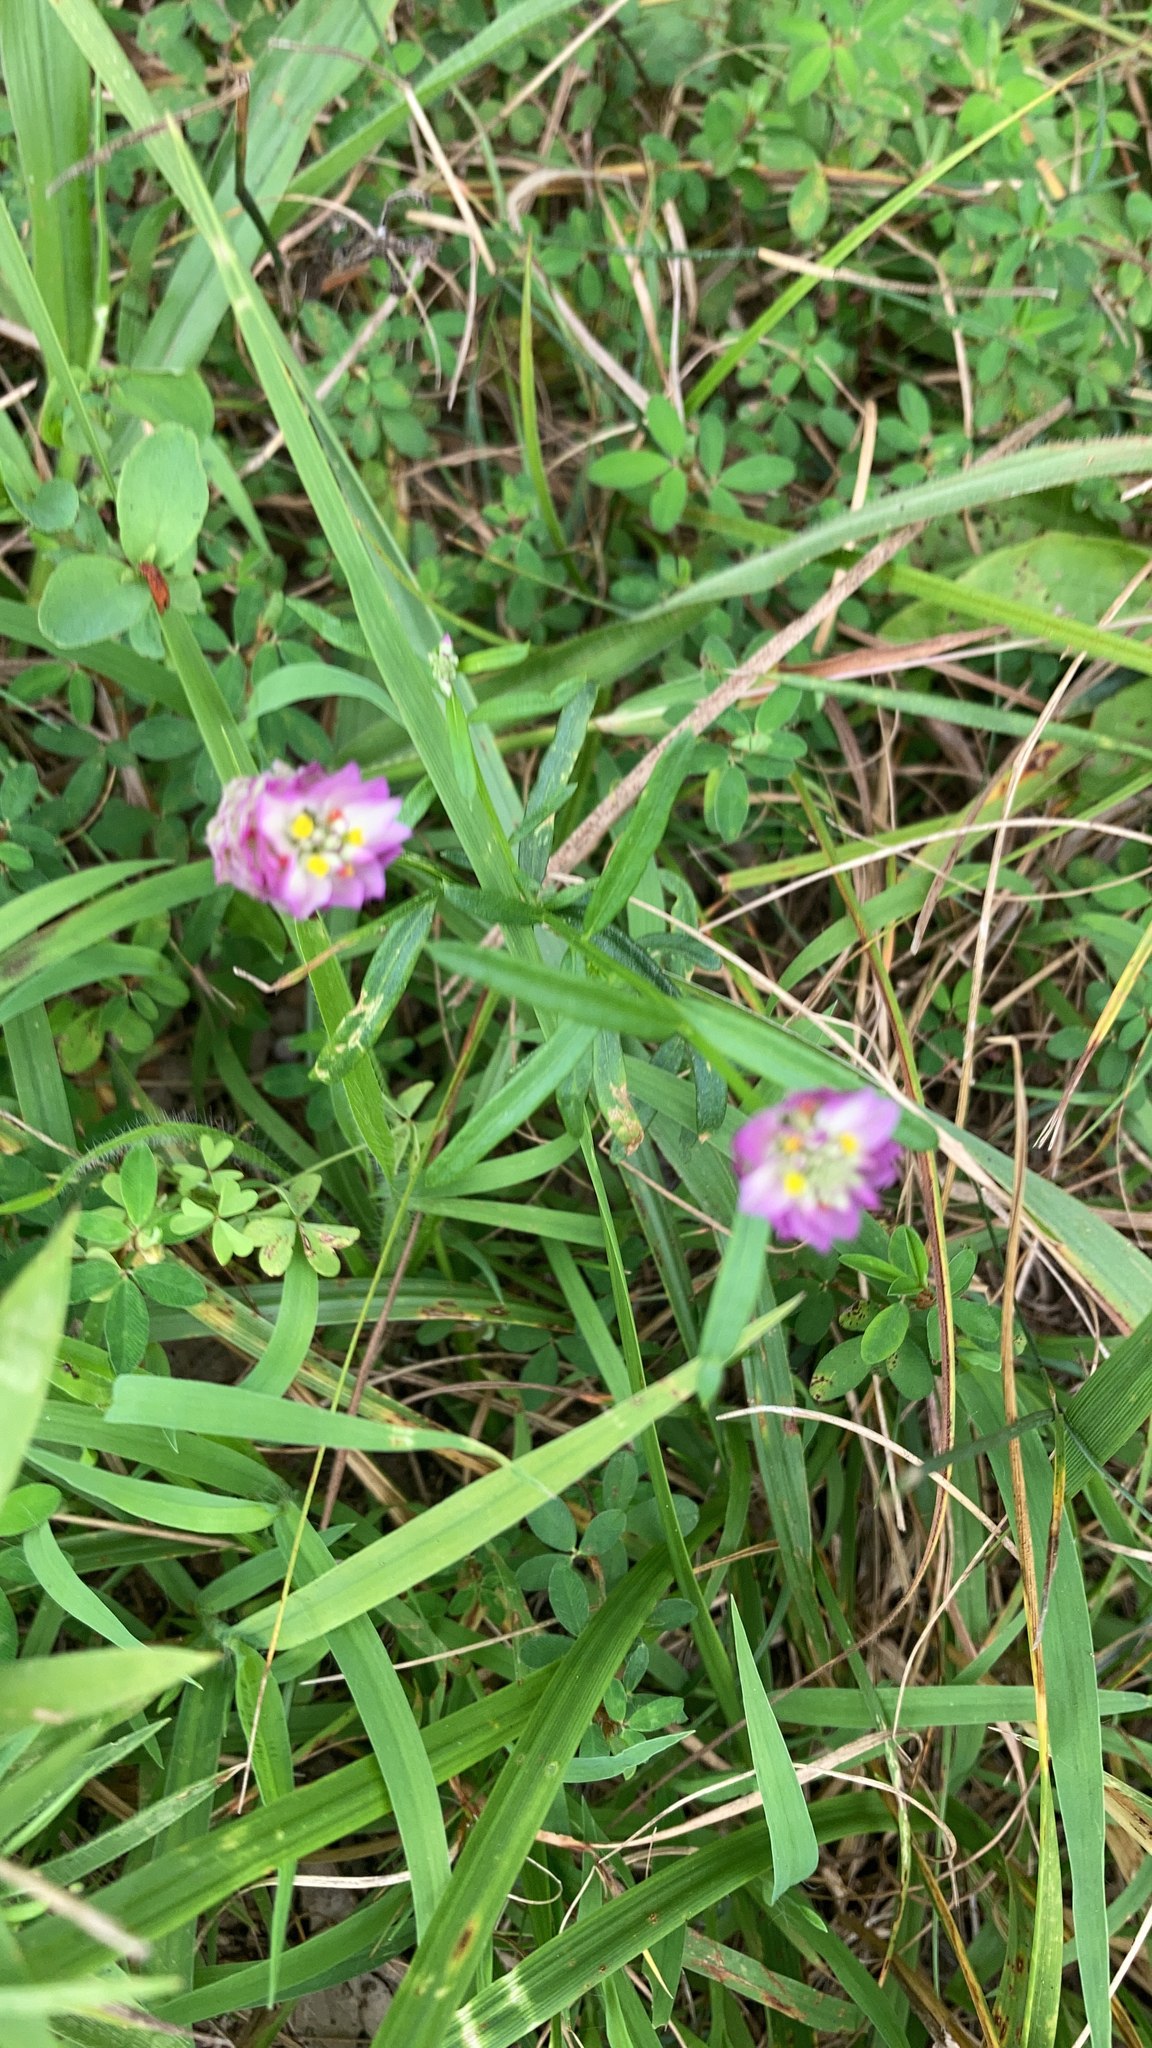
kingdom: Plantae
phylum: Tracheophyta
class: Magnoliopsida
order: Fabales
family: Polygalaceae
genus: Polygala
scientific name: Polygala sanguinea
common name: Blood milkwort
